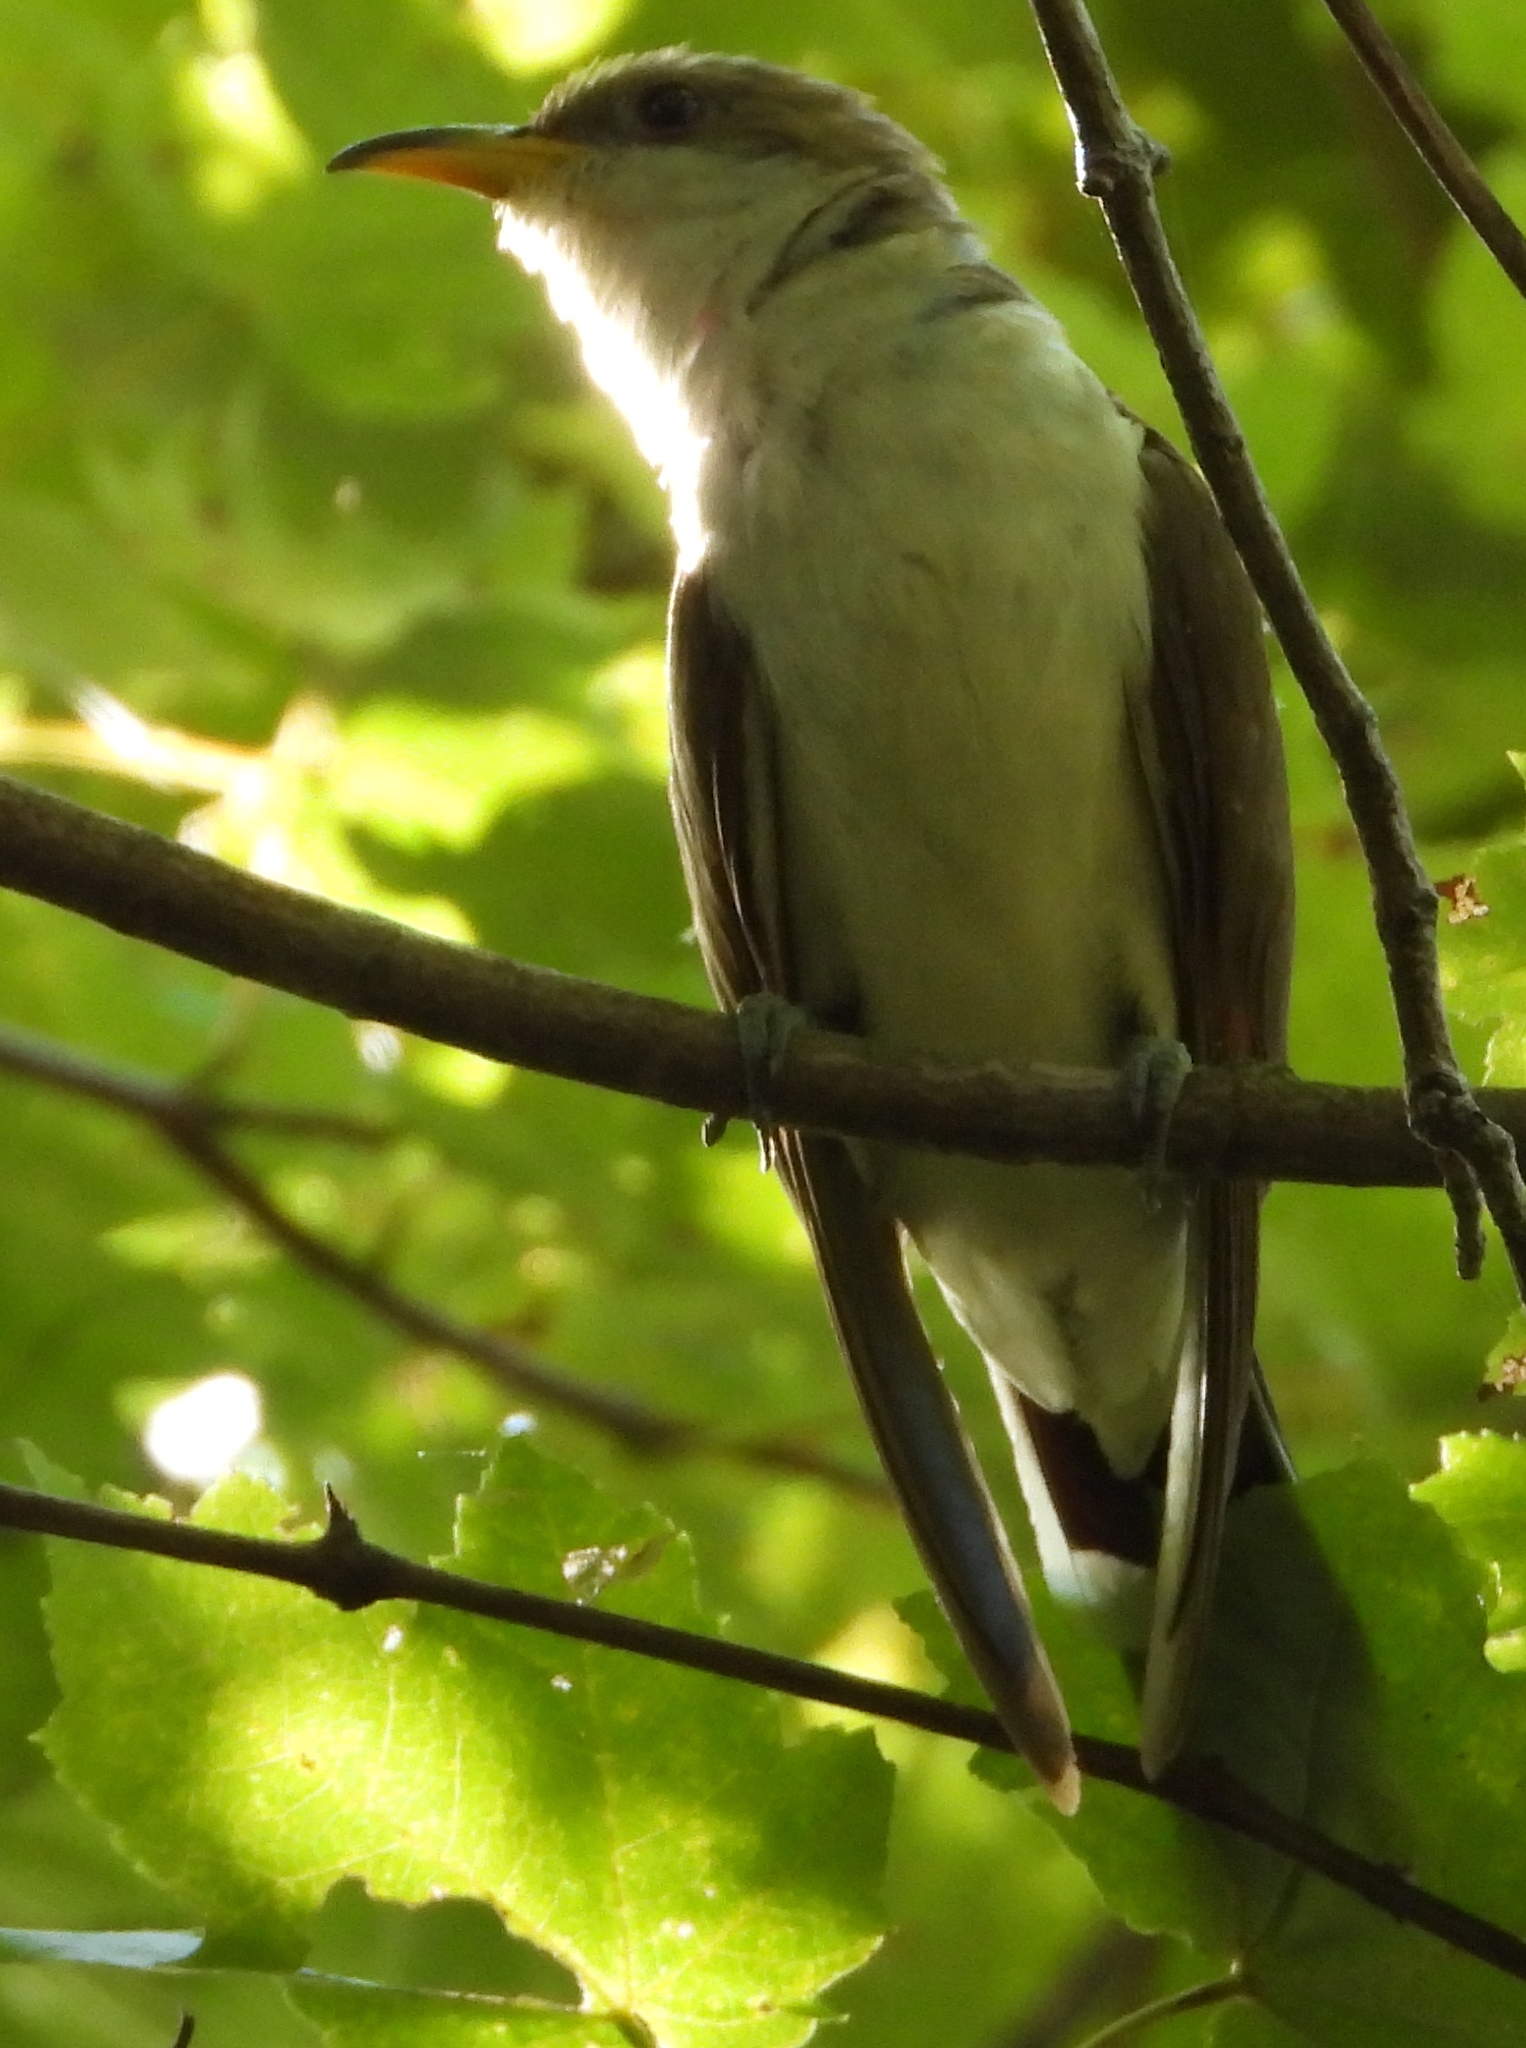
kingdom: Animalia
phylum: Chordata
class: Aves
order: Cuculiformes
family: Cuculidae
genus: Coccyzus
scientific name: Coccyzus americanus
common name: Yellow-billed cuckoo
